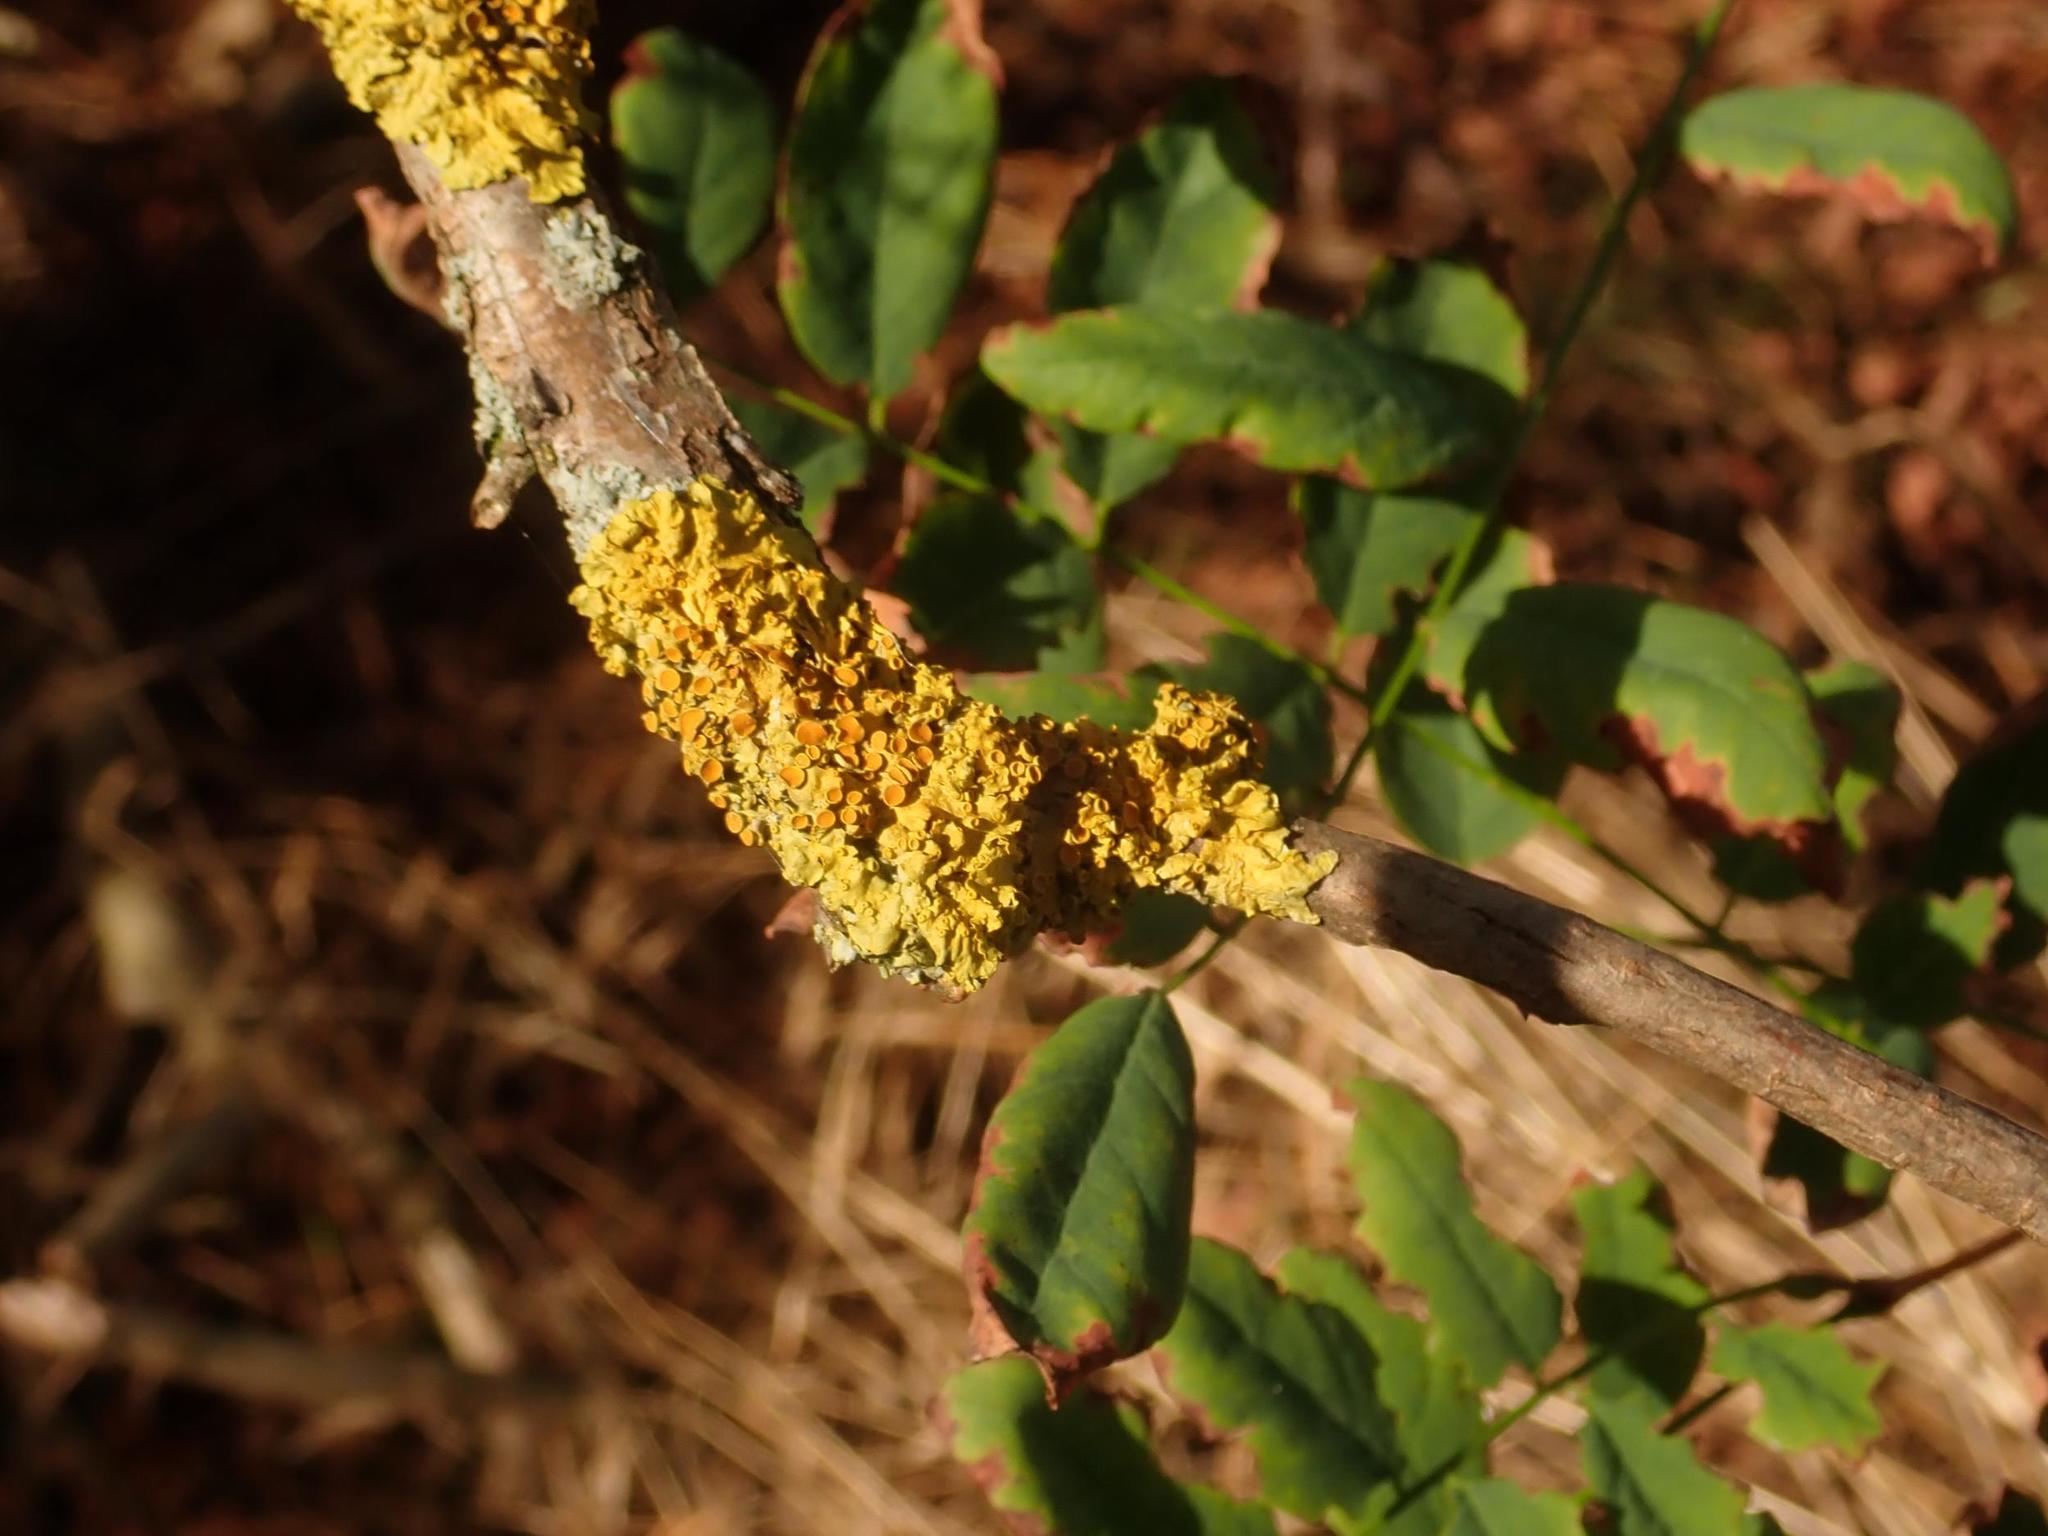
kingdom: Fungi
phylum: Ascomycota
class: Lecanoromycetes
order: Teloschistales
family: Teloschistaceae
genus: Xanthoria
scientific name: Xanthoria parietina
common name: Common orange lichen
